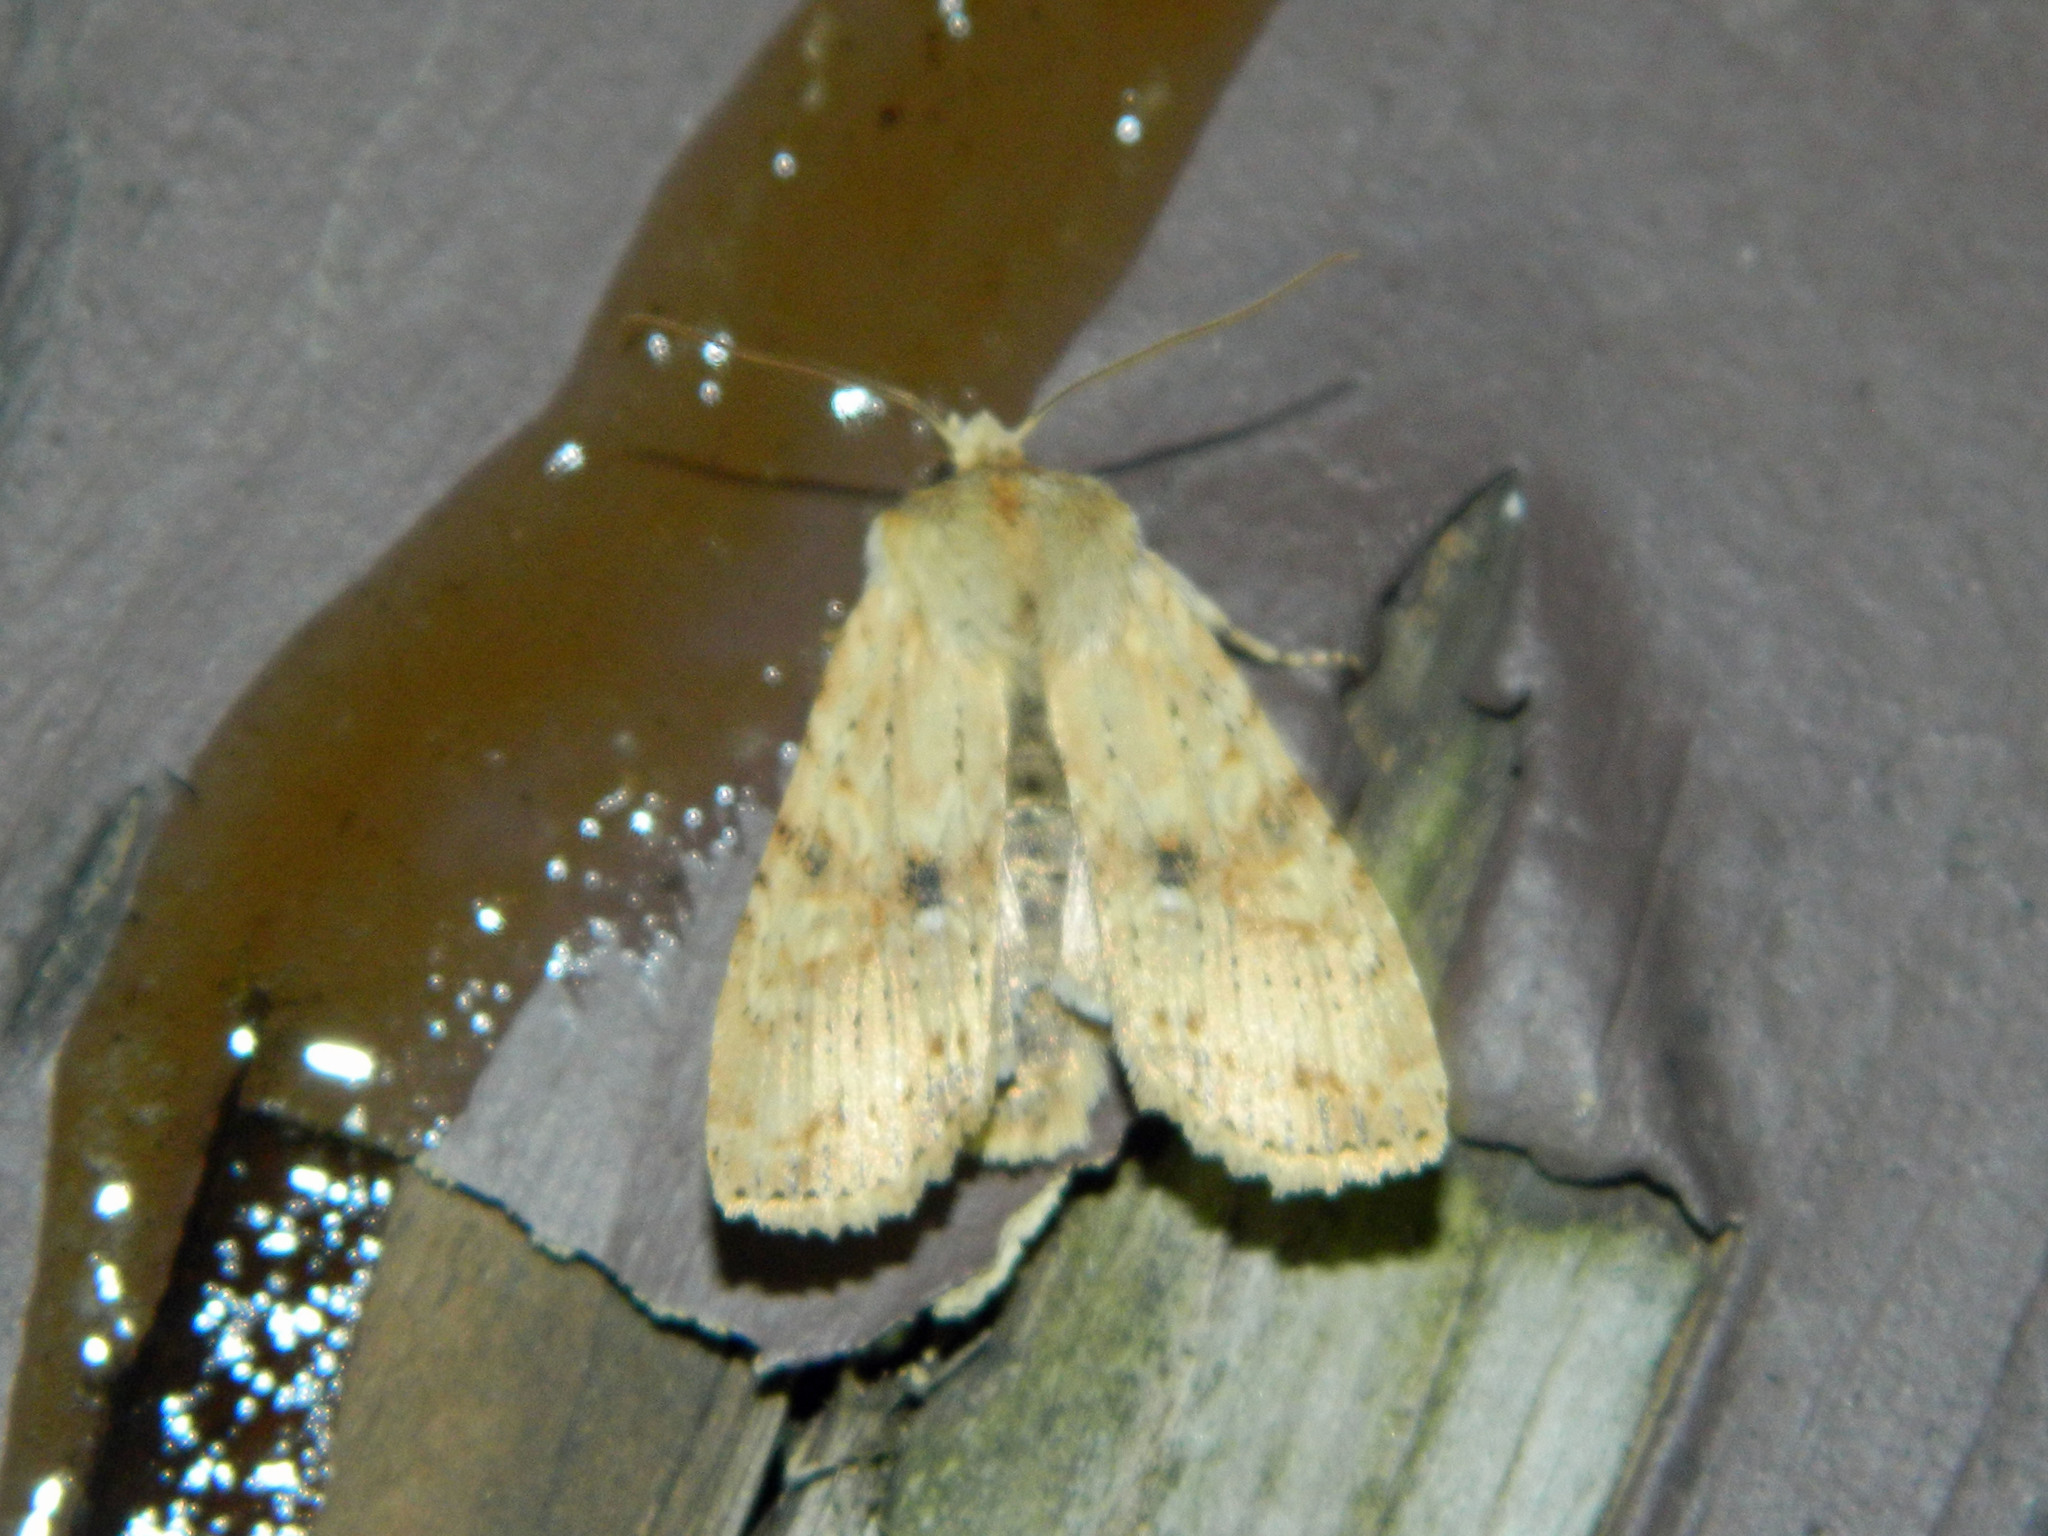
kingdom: Animalia
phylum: Arthropoda
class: Insecta
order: Lepidoptera
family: Noctuidae
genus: Lithophane
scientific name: Lithophane innominata
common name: Nameless pinion moth
